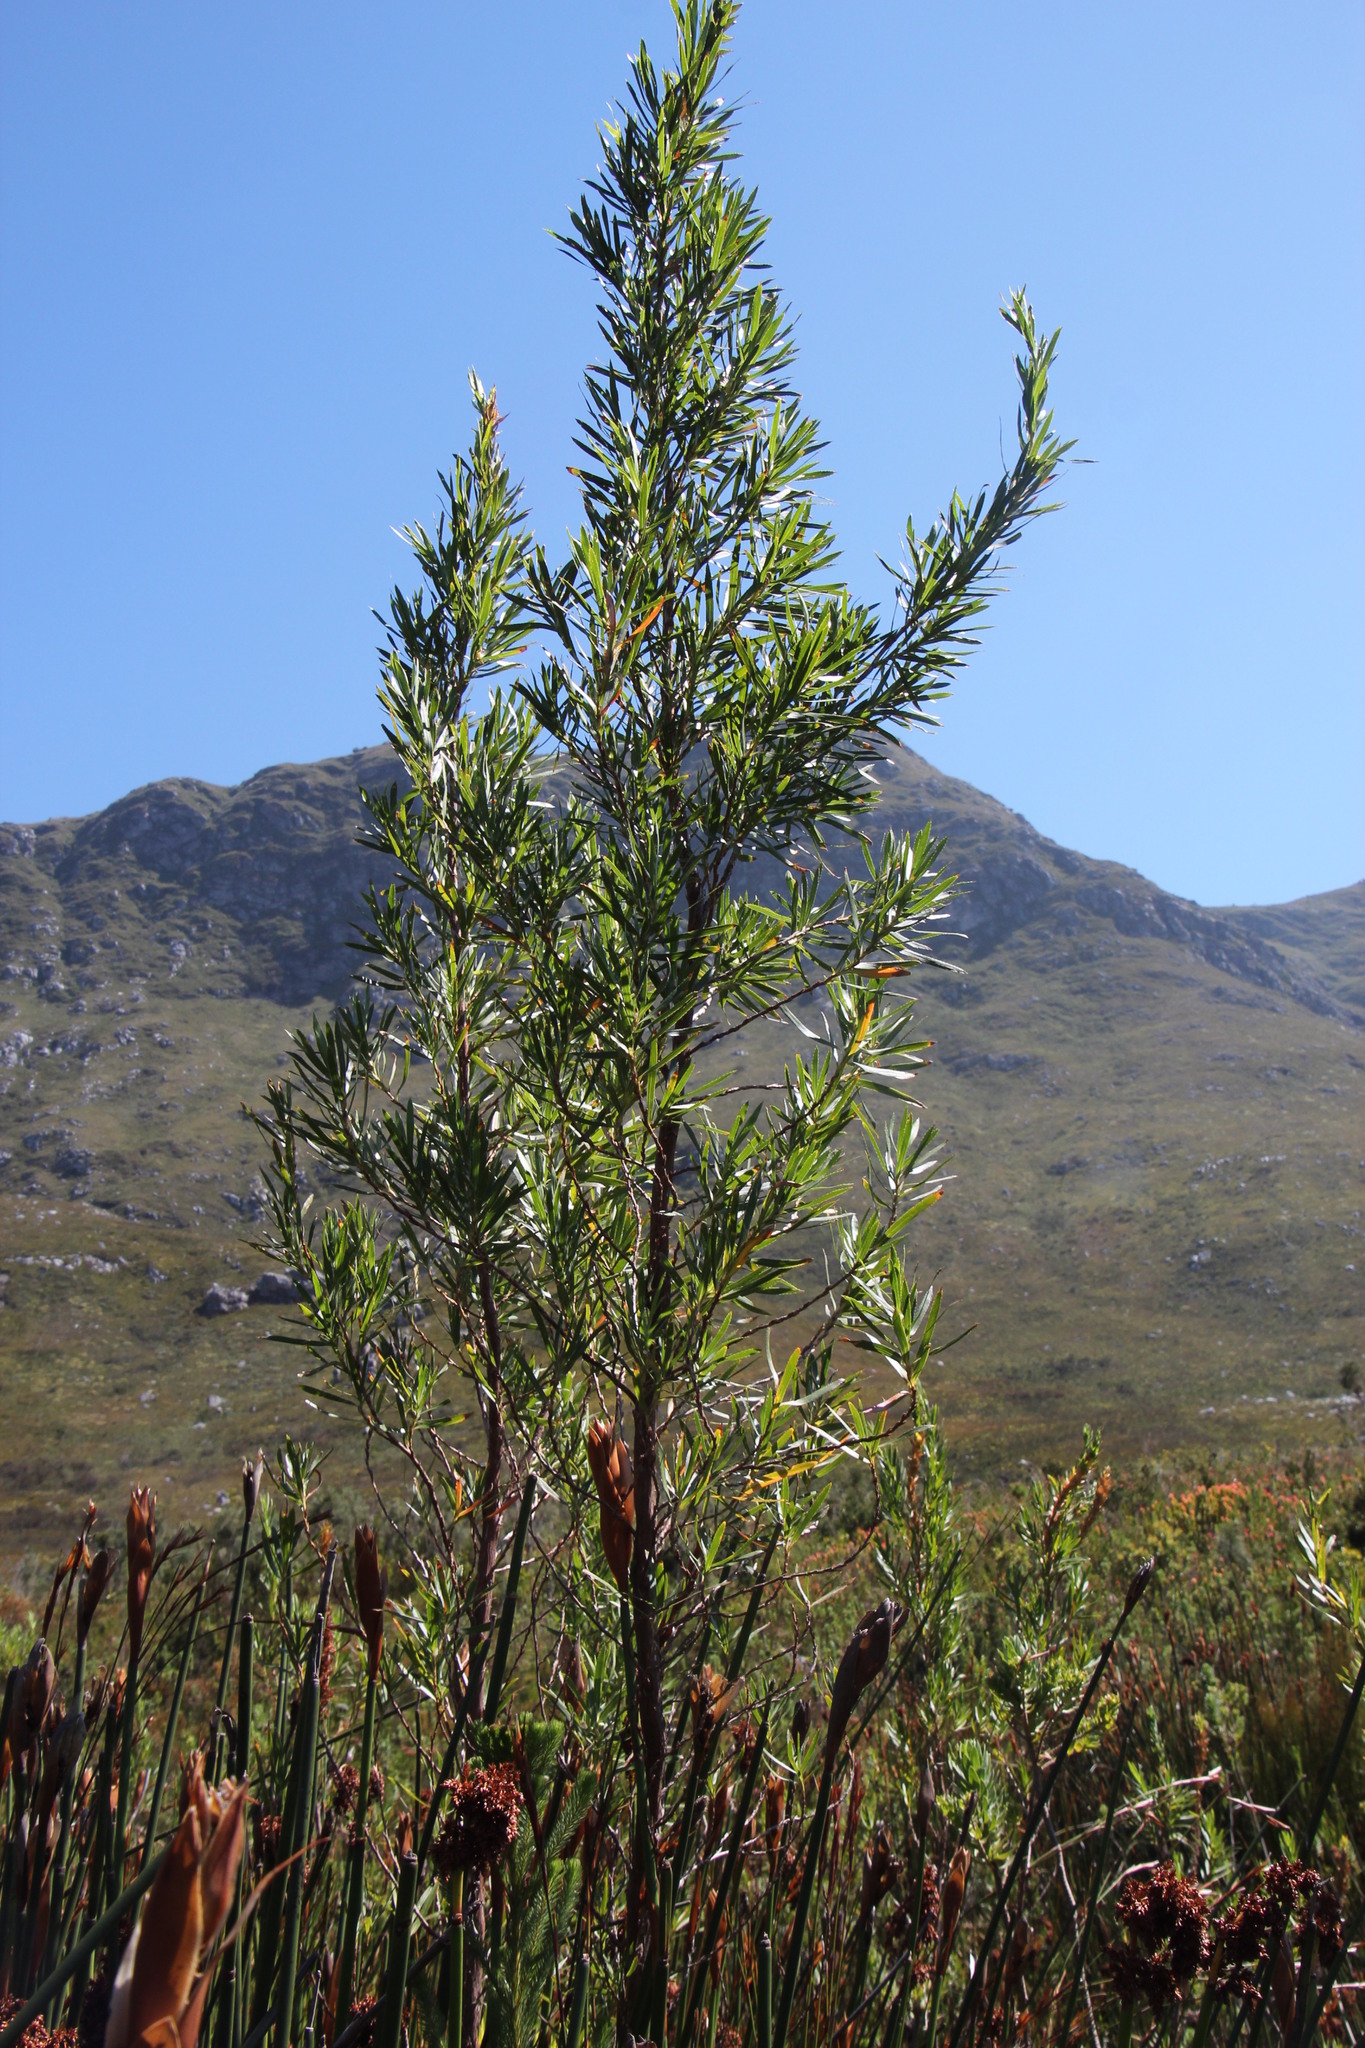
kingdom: Plantae
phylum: Tracheophyta
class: Magnoliopsida
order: Rosales
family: Rosaceae
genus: Cliffortia
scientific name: Cliffortia heterophylla
